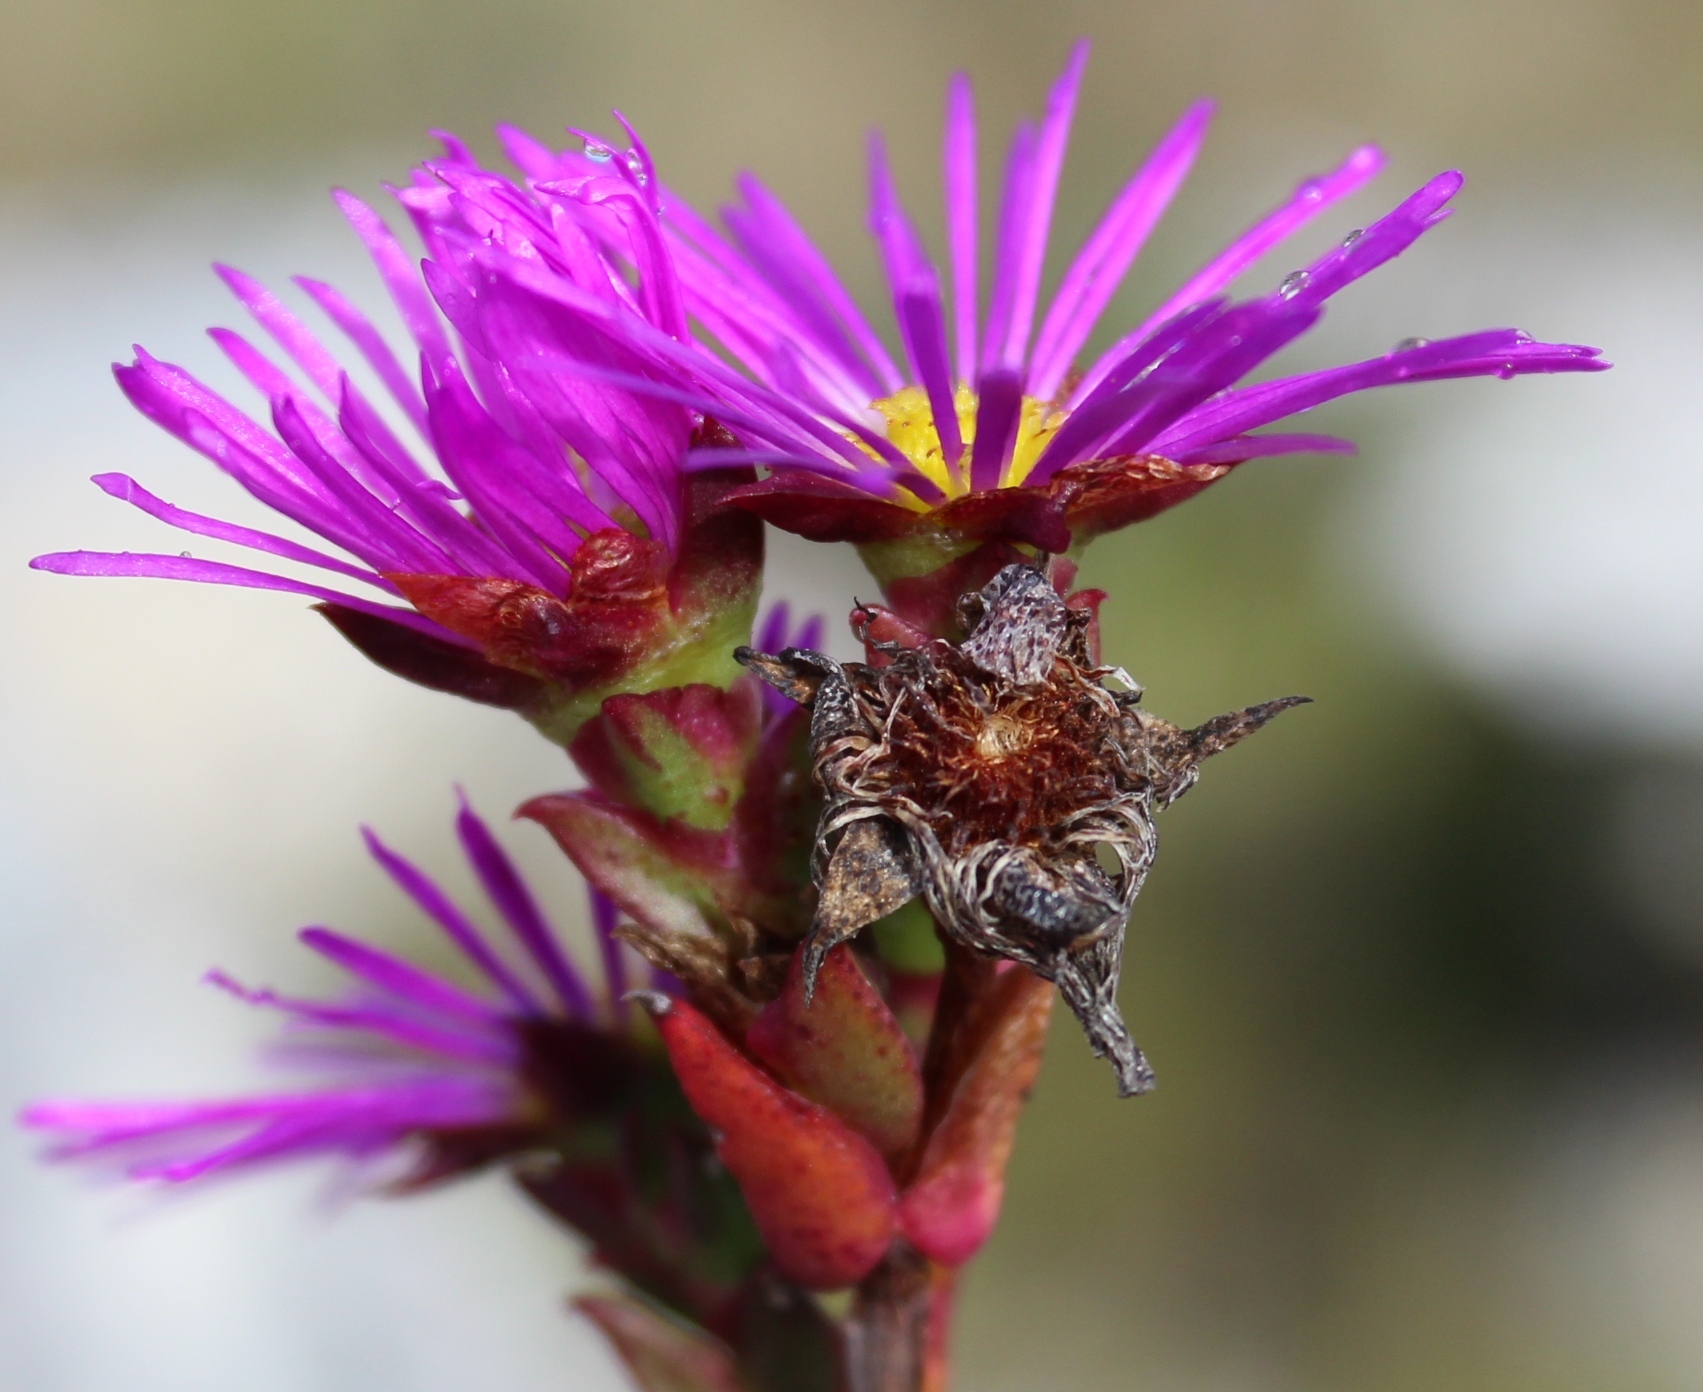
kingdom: Plantae
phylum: Tracheophyta
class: Magnoliopsida
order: Caryophyllales
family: Aizoaceae
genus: Erepsia
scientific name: Erepsia patula
